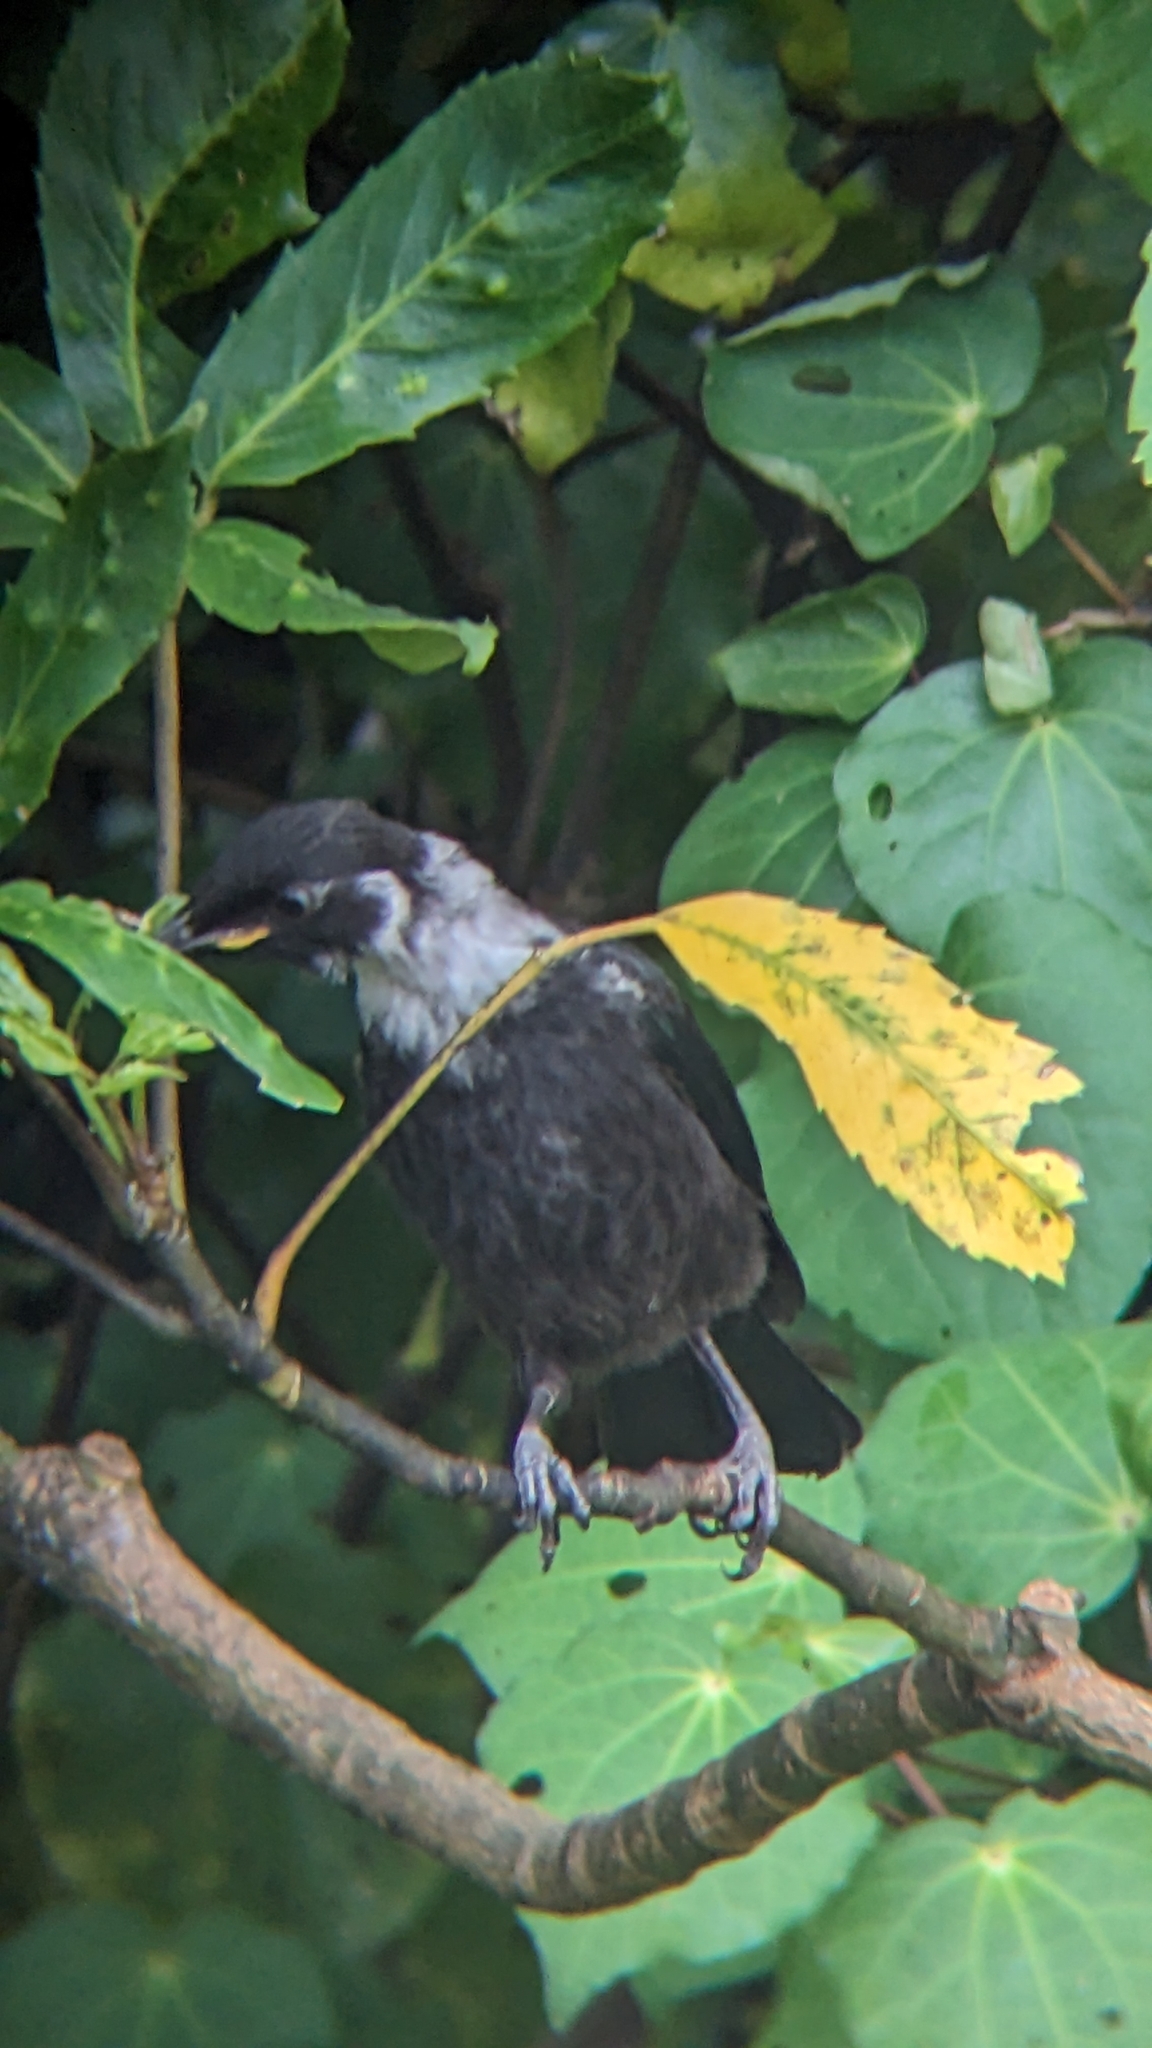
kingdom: Animalia
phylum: Chordata
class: Aves
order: Passeriformes
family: Meliphagidae
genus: Prosthemadera
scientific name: Prosthemadera novaeseelandiae
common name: Tui
